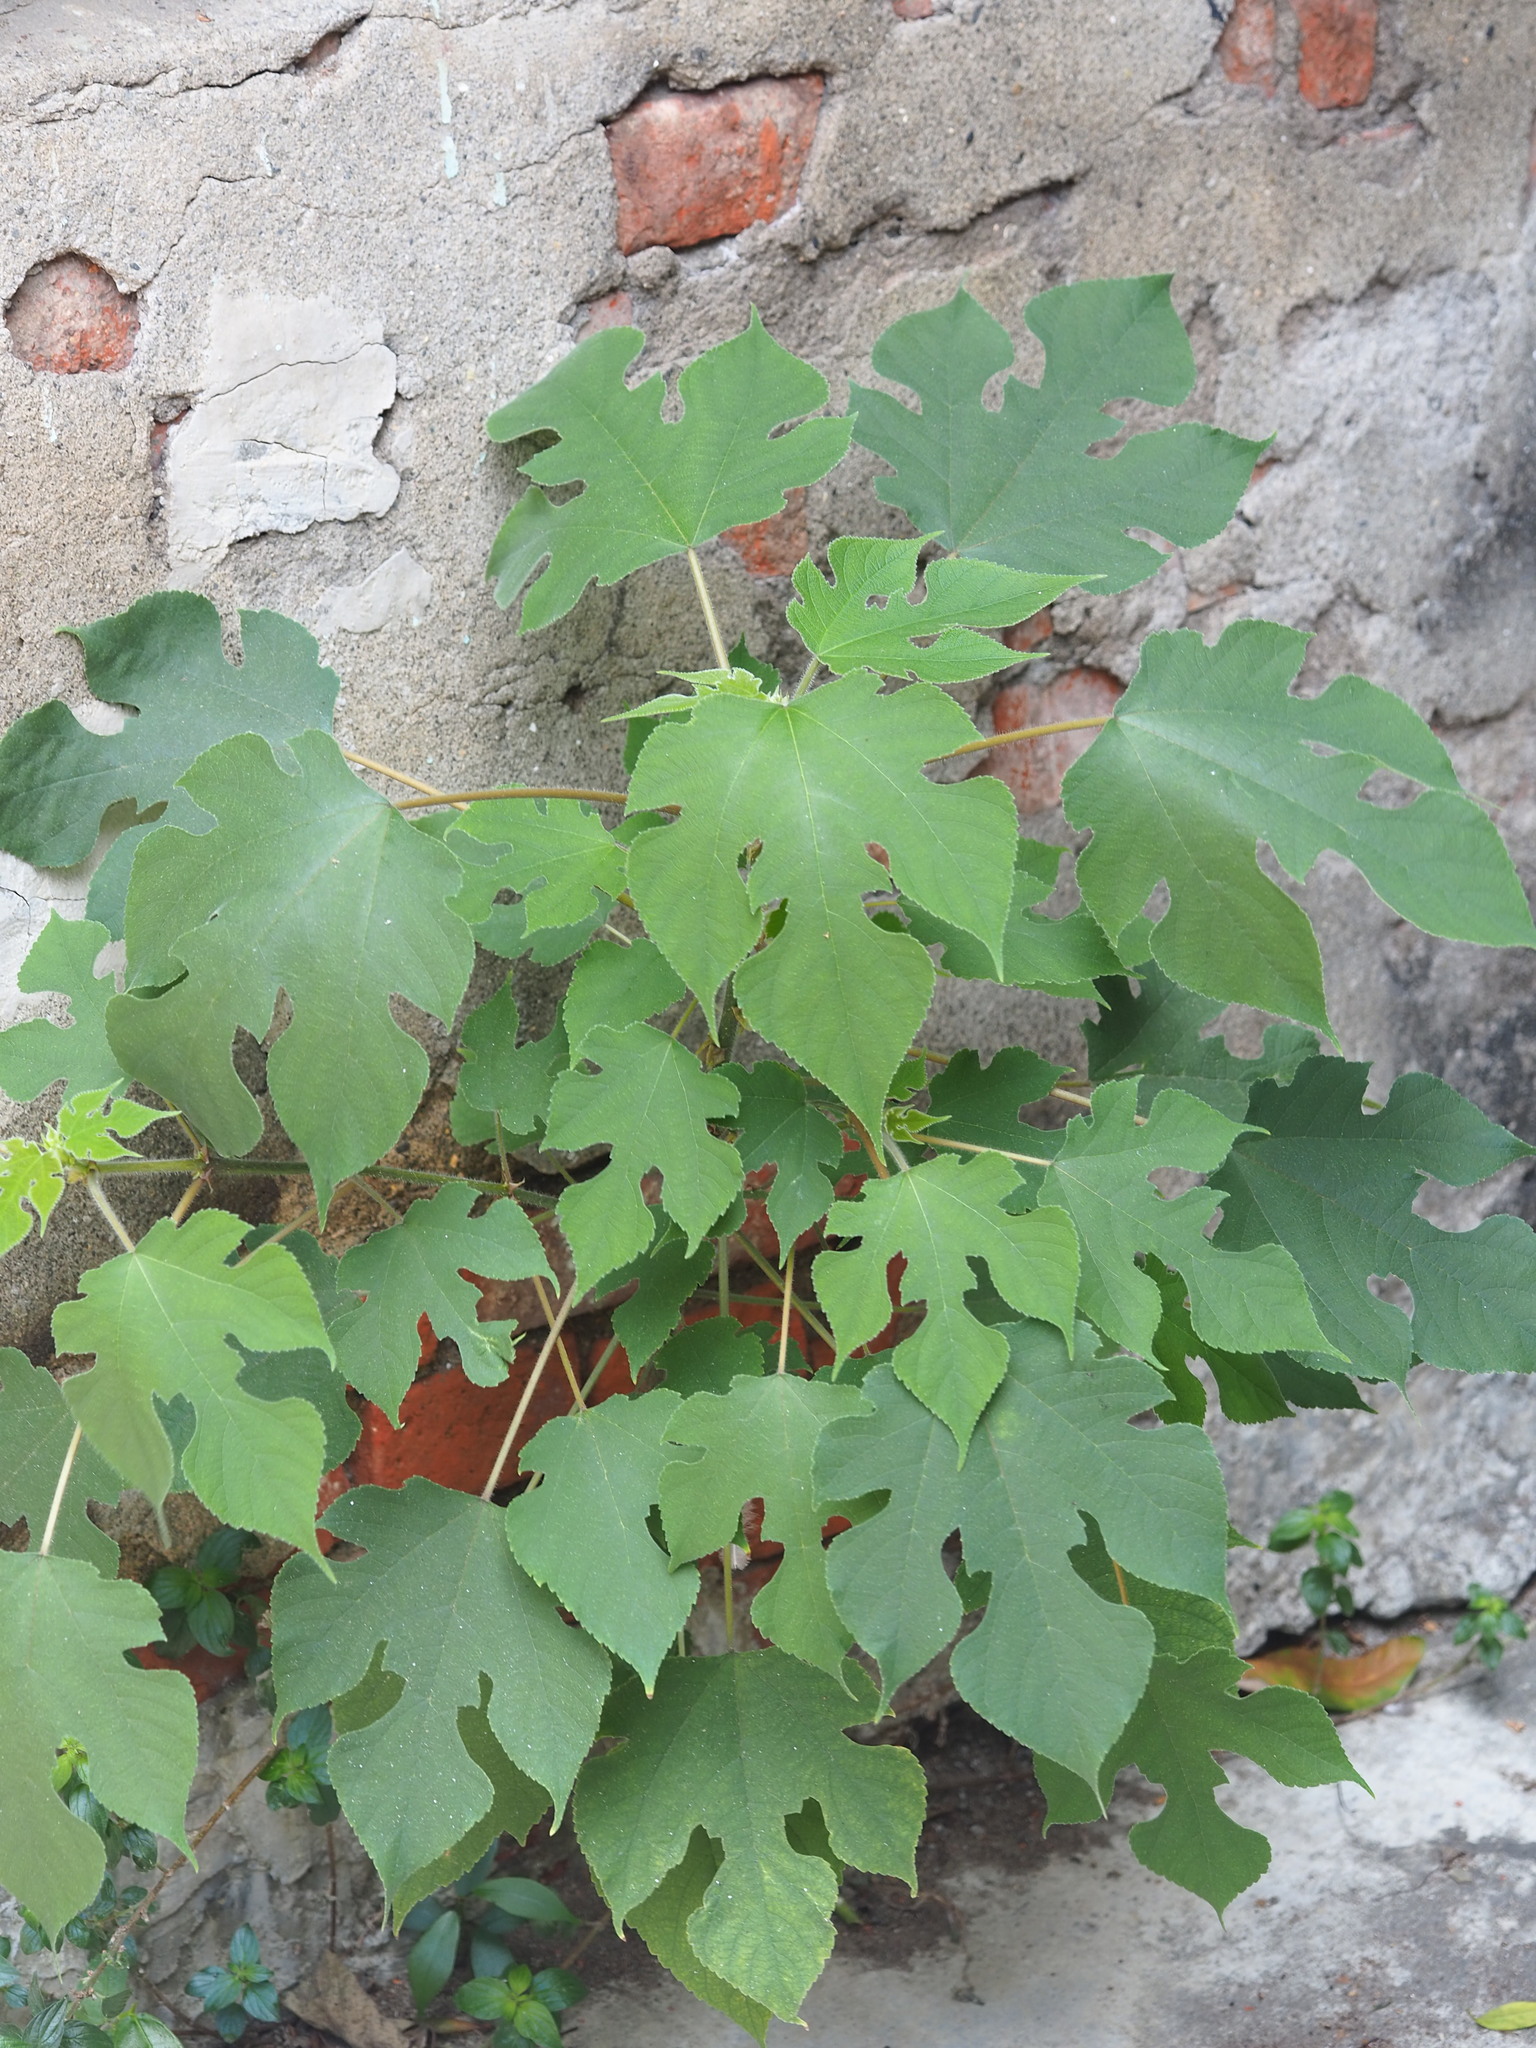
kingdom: Plantae
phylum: Tracheophyta
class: Magnoliopsida
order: Rosales
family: Moraceae
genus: Broussonetia
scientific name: Broussonetia papyrifera
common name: Paper mulberry
